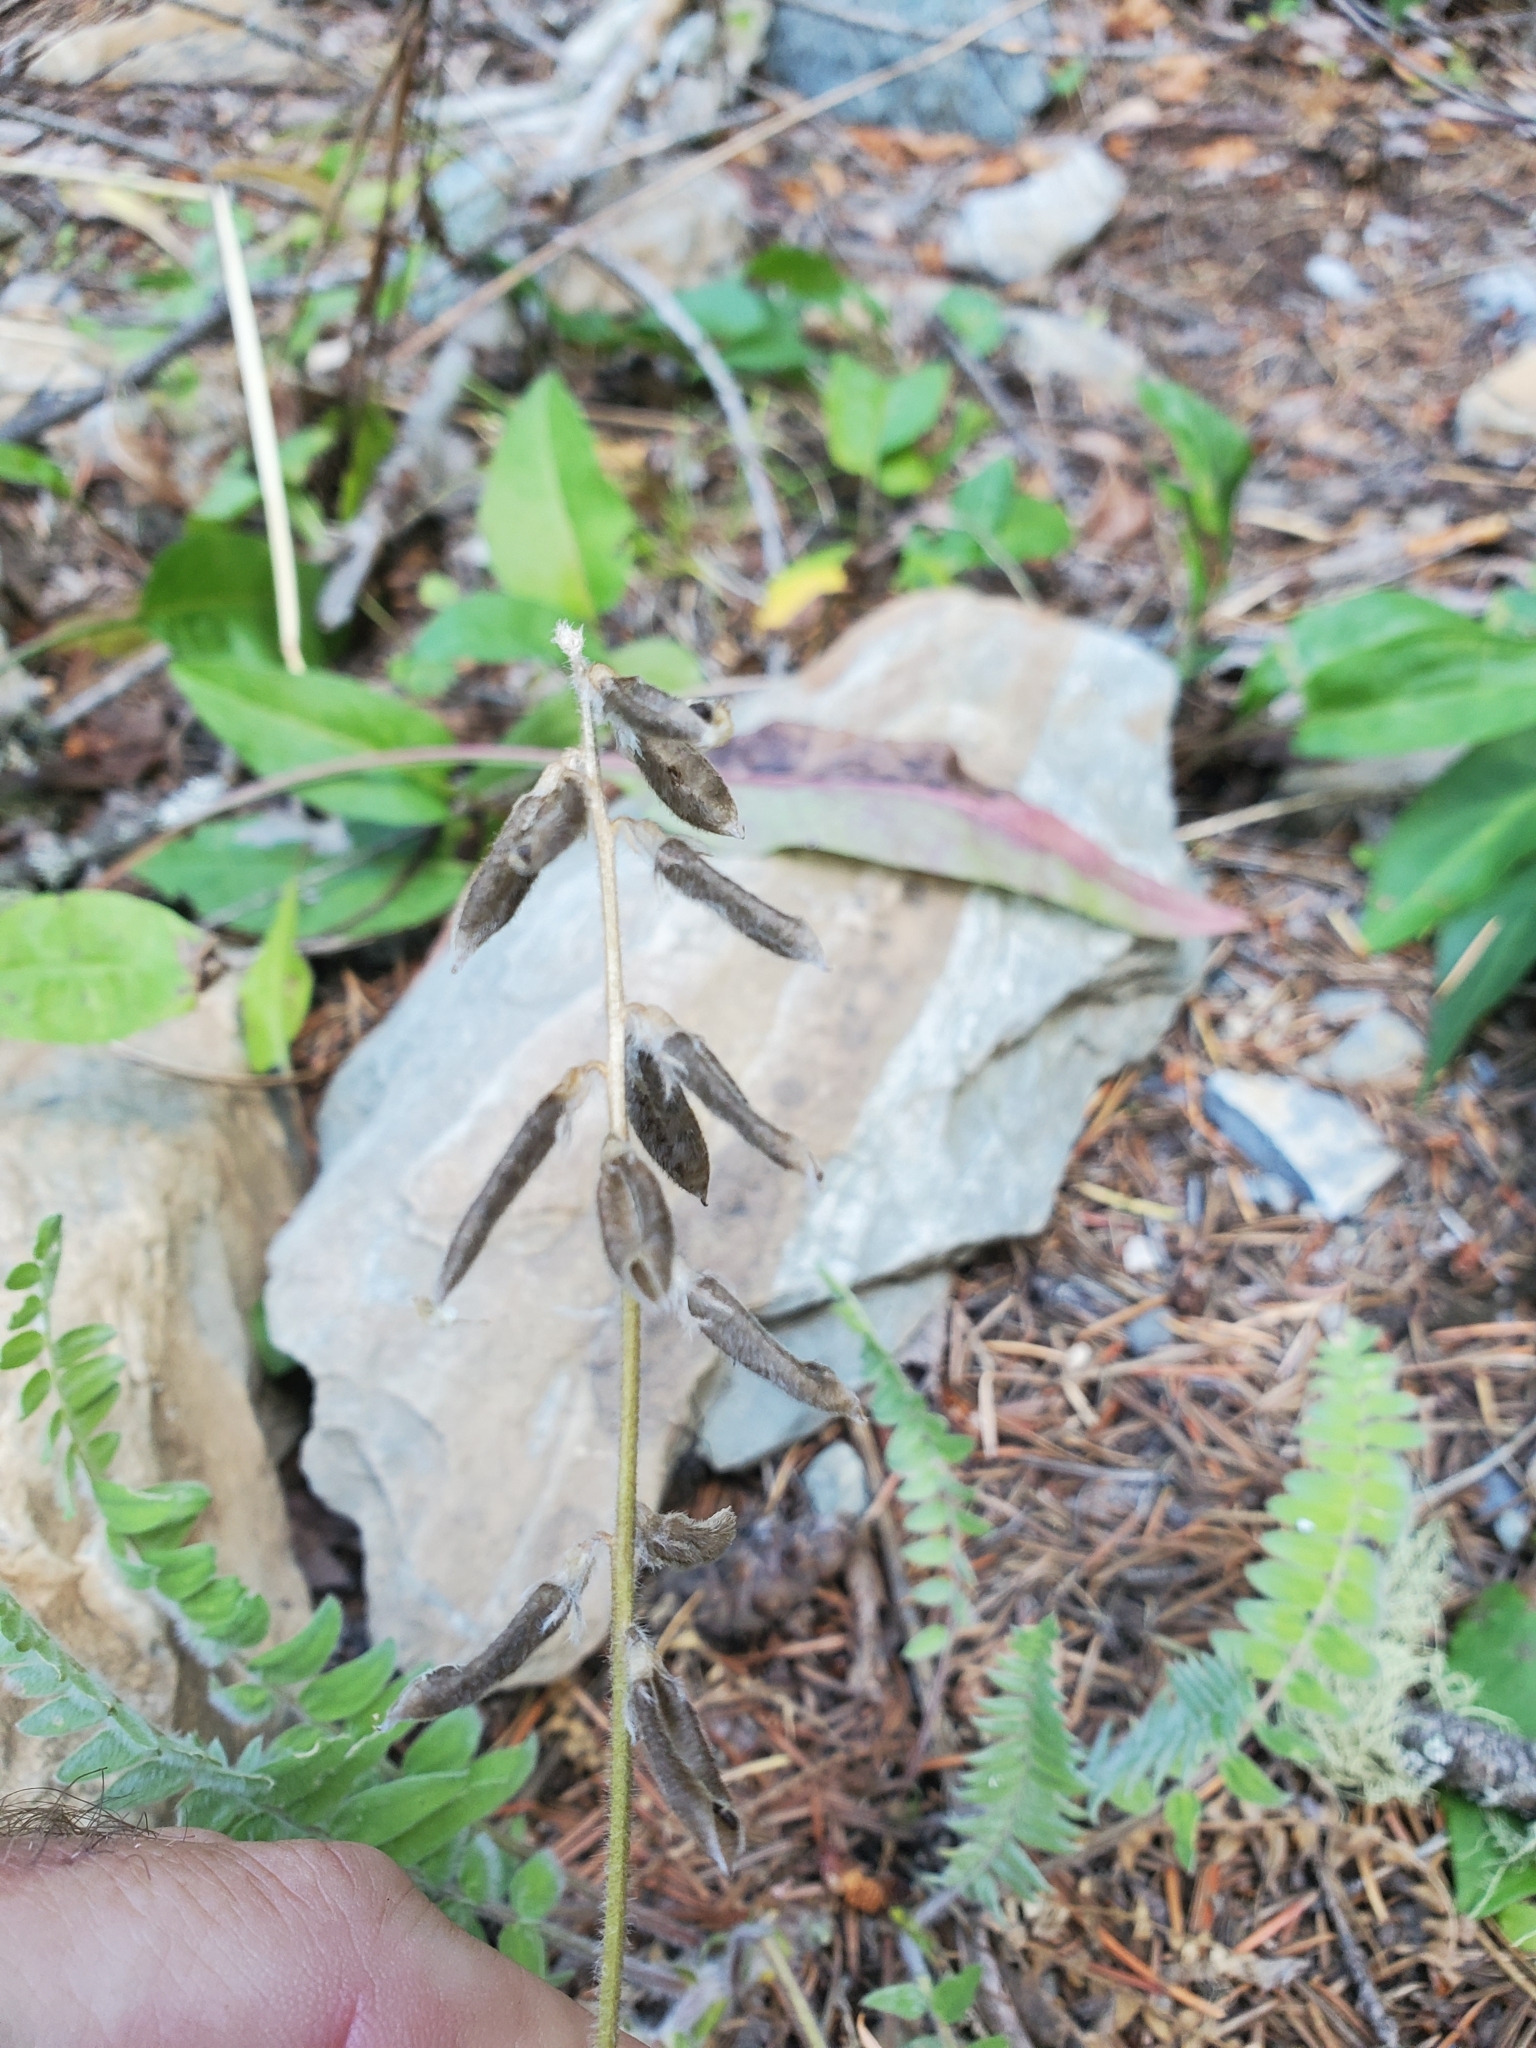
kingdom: Plantae
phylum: Tracheophyta
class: Magnoliopsida
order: Fabales
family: Fabaceae
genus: Oxytropis
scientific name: Oxytropis deflexa
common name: Stemmed oxytrope
